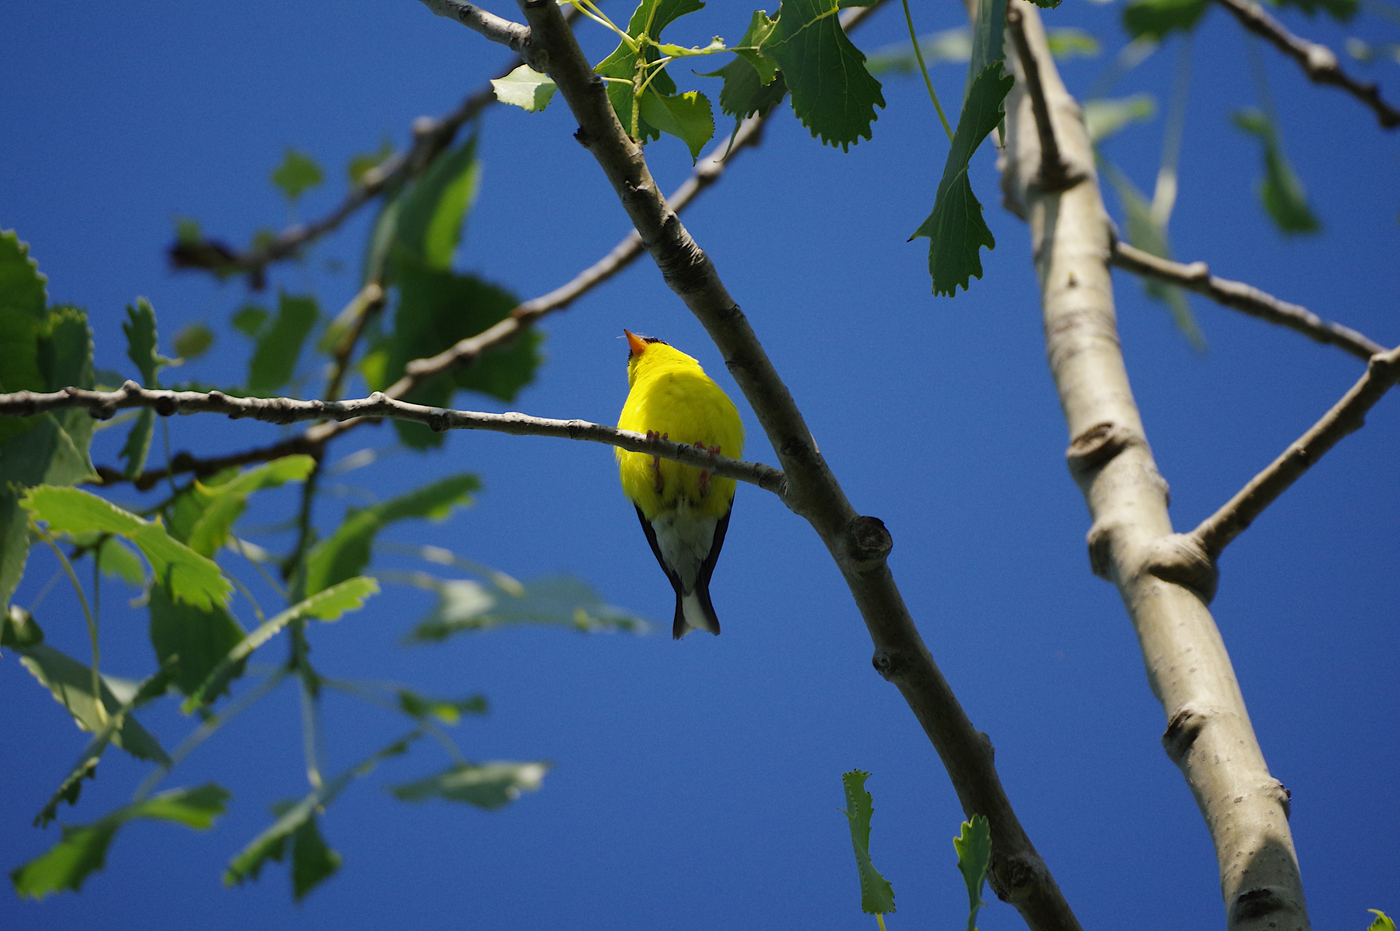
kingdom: Animalia
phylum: Chordata
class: Aves
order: Passeriformes
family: Fringillidae
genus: Spinus
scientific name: Spinus tristis
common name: American goldfinch
